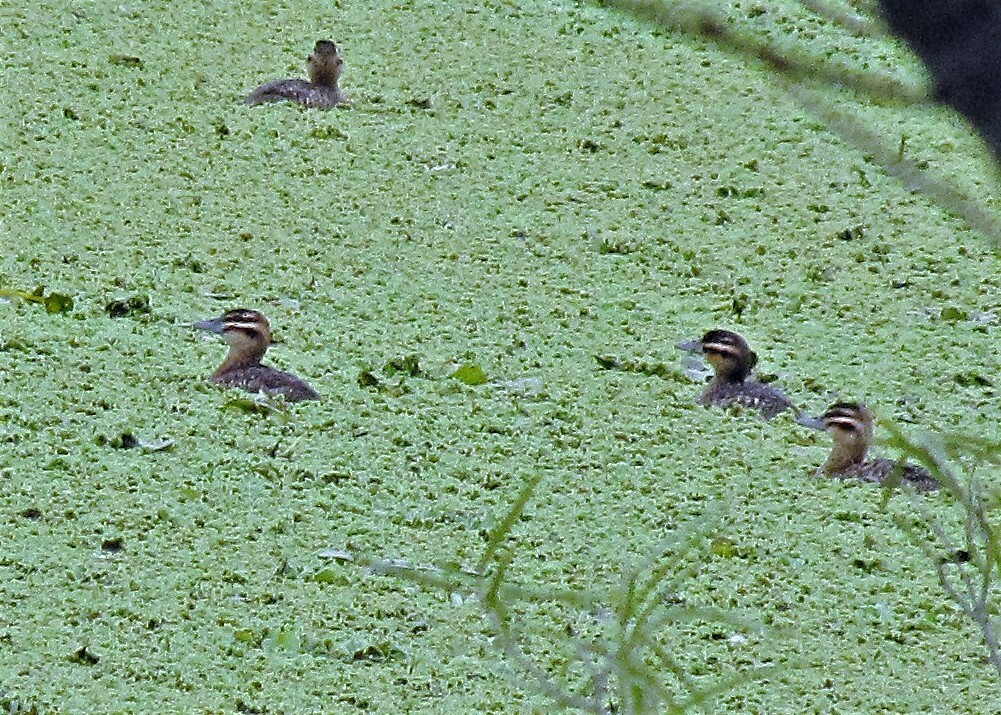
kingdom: Animalia
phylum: Chordata
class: Aves
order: Anseriformes
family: Anatidae
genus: Nomonyx
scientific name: Nomonyx dominicus
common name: Masked duck
